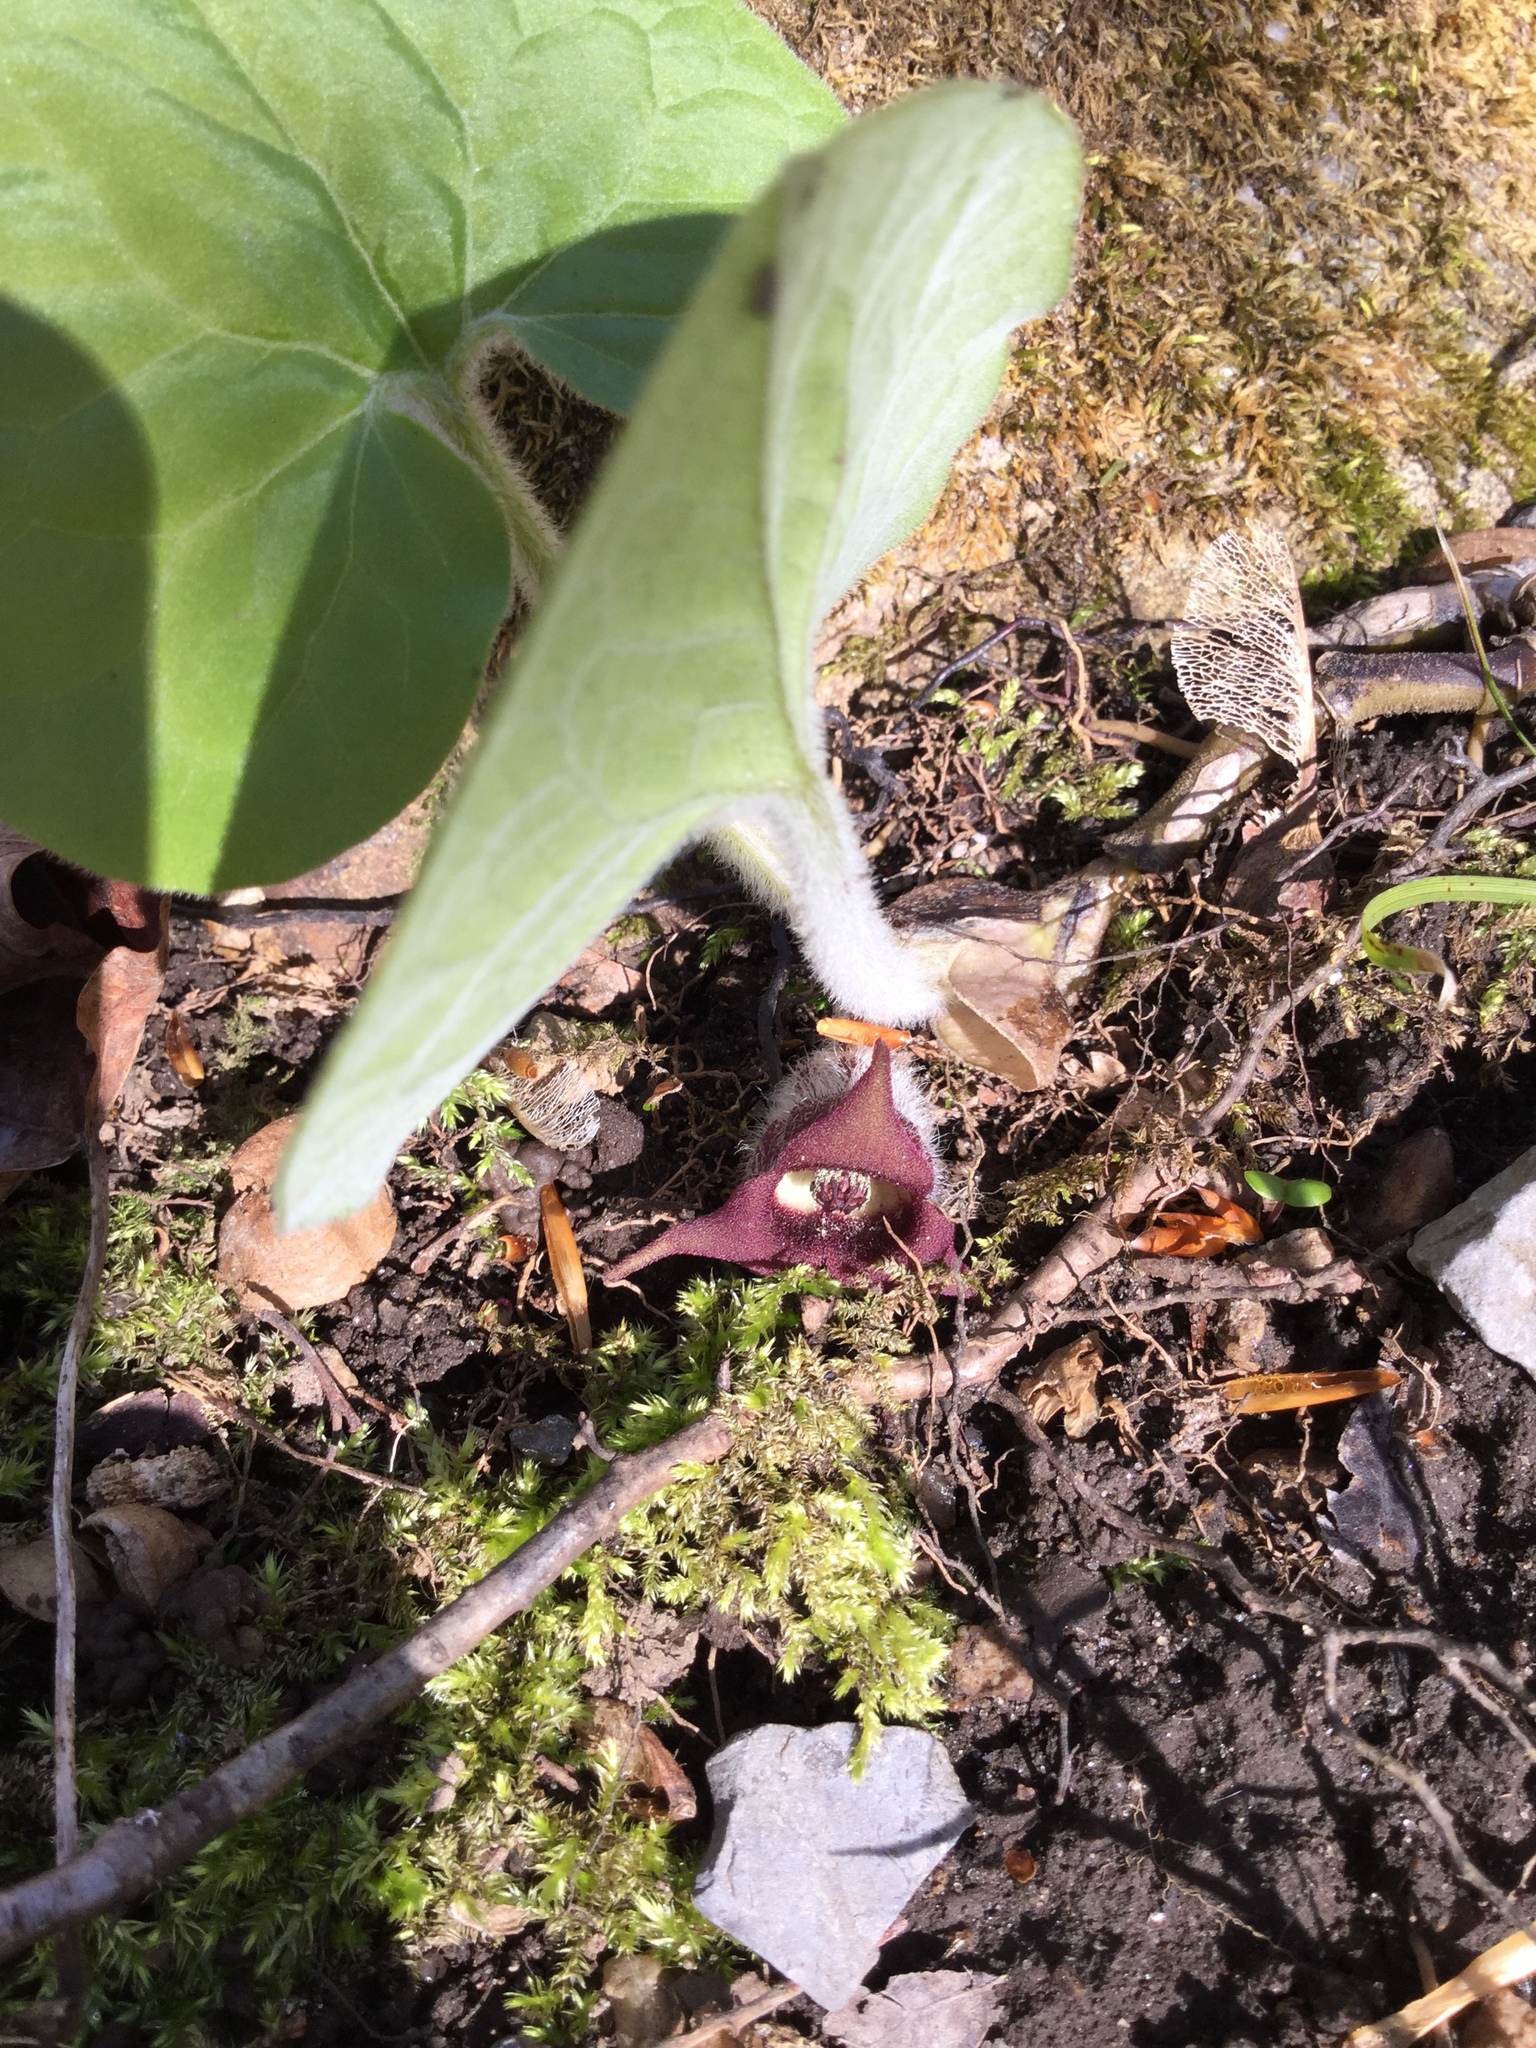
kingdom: Plantae
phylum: Tracheophyta
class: Magnoliopsida
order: Piperales
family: Aristolochiaceae
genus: Asarum
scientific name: Asarum canadense
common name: Wild ginger
